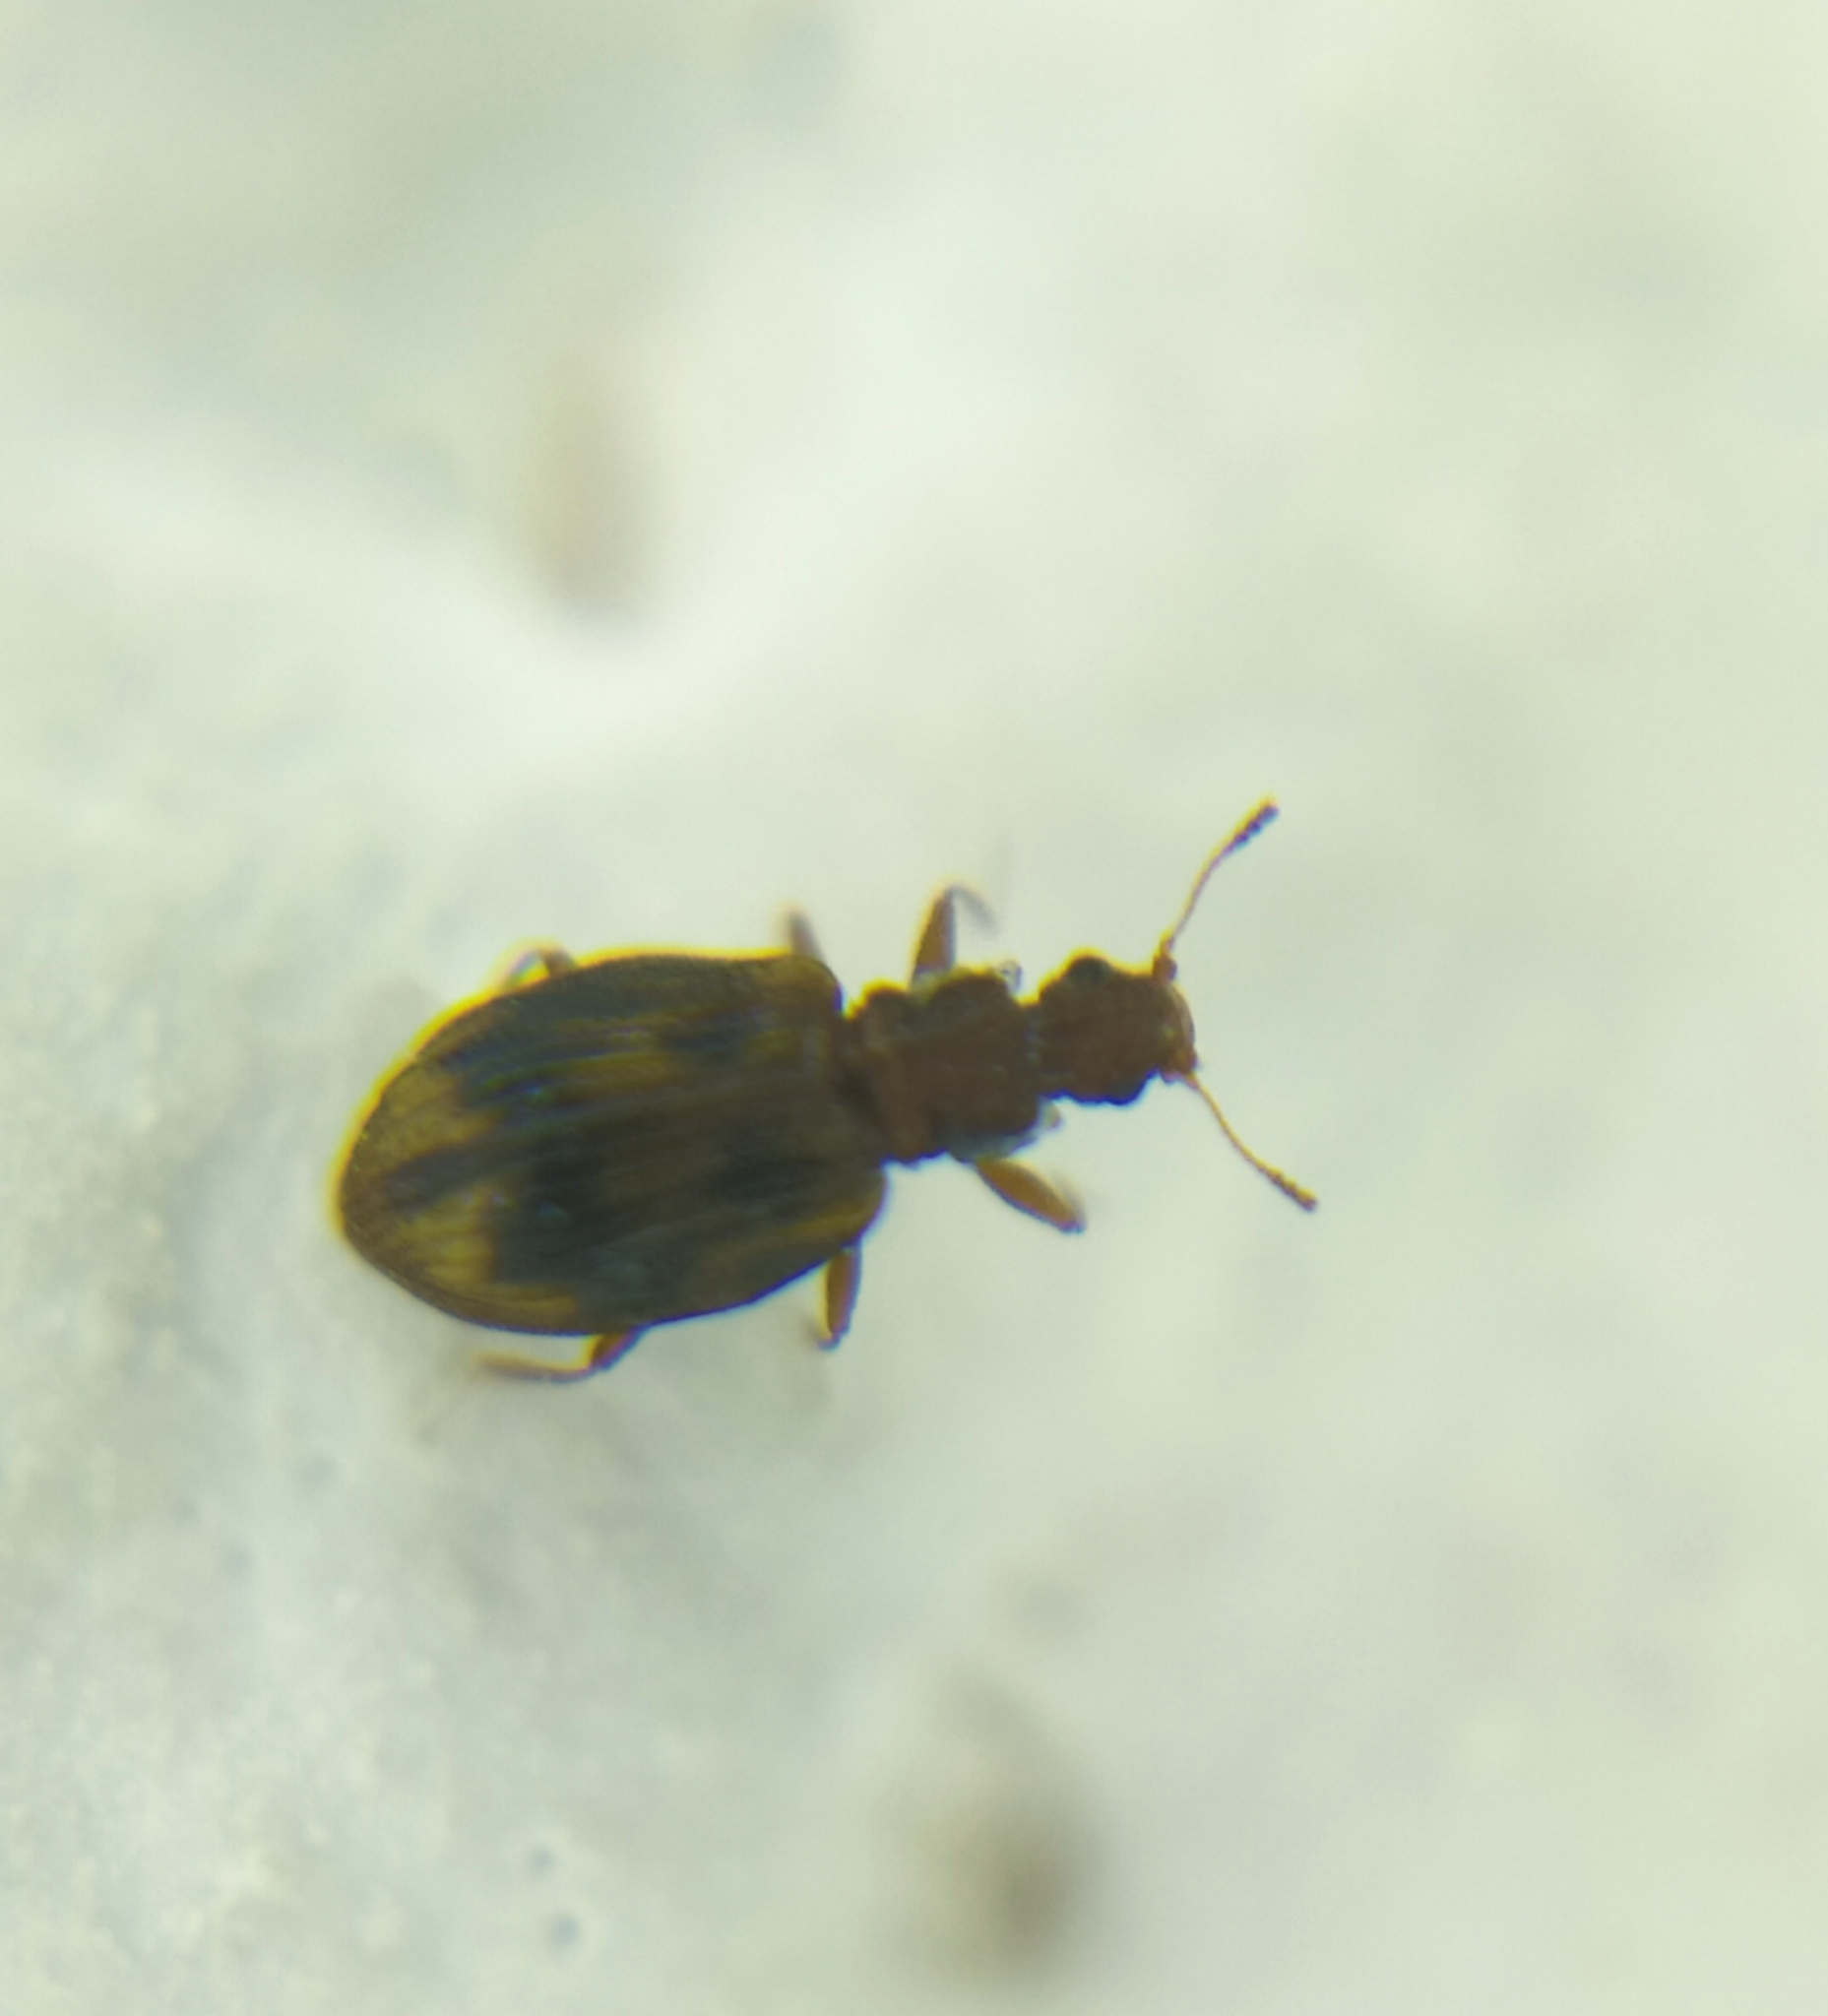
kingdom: Animalia
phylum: Arthropoda
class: Insecta
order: Coleoptera
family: Latridiidae
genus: Cartodere
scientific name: Cartodere bifasciata
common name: Plaster beetle
